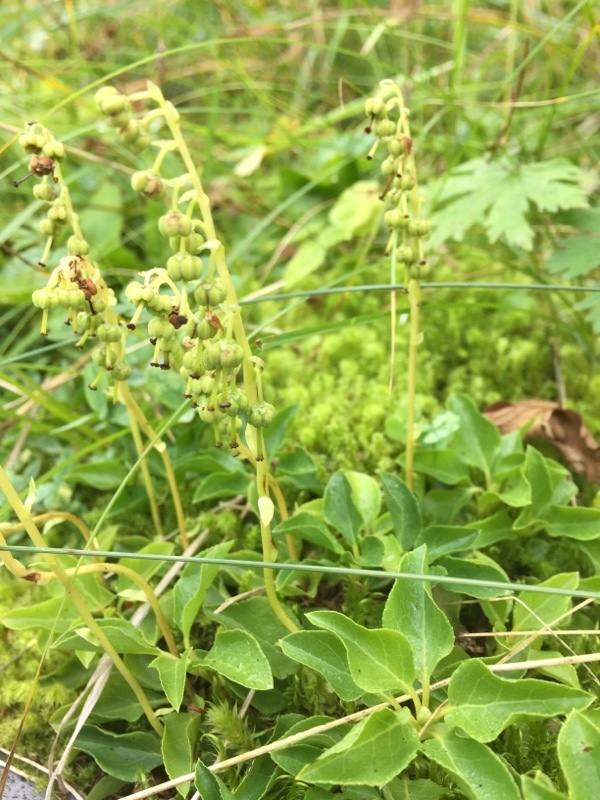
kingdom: Plantae
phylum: Tracheophyta
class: Magnoliopsida
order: Ericales
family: Ericaceae
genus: Orthilia
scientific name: Orthilia secunda
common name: One-sided orthilia
